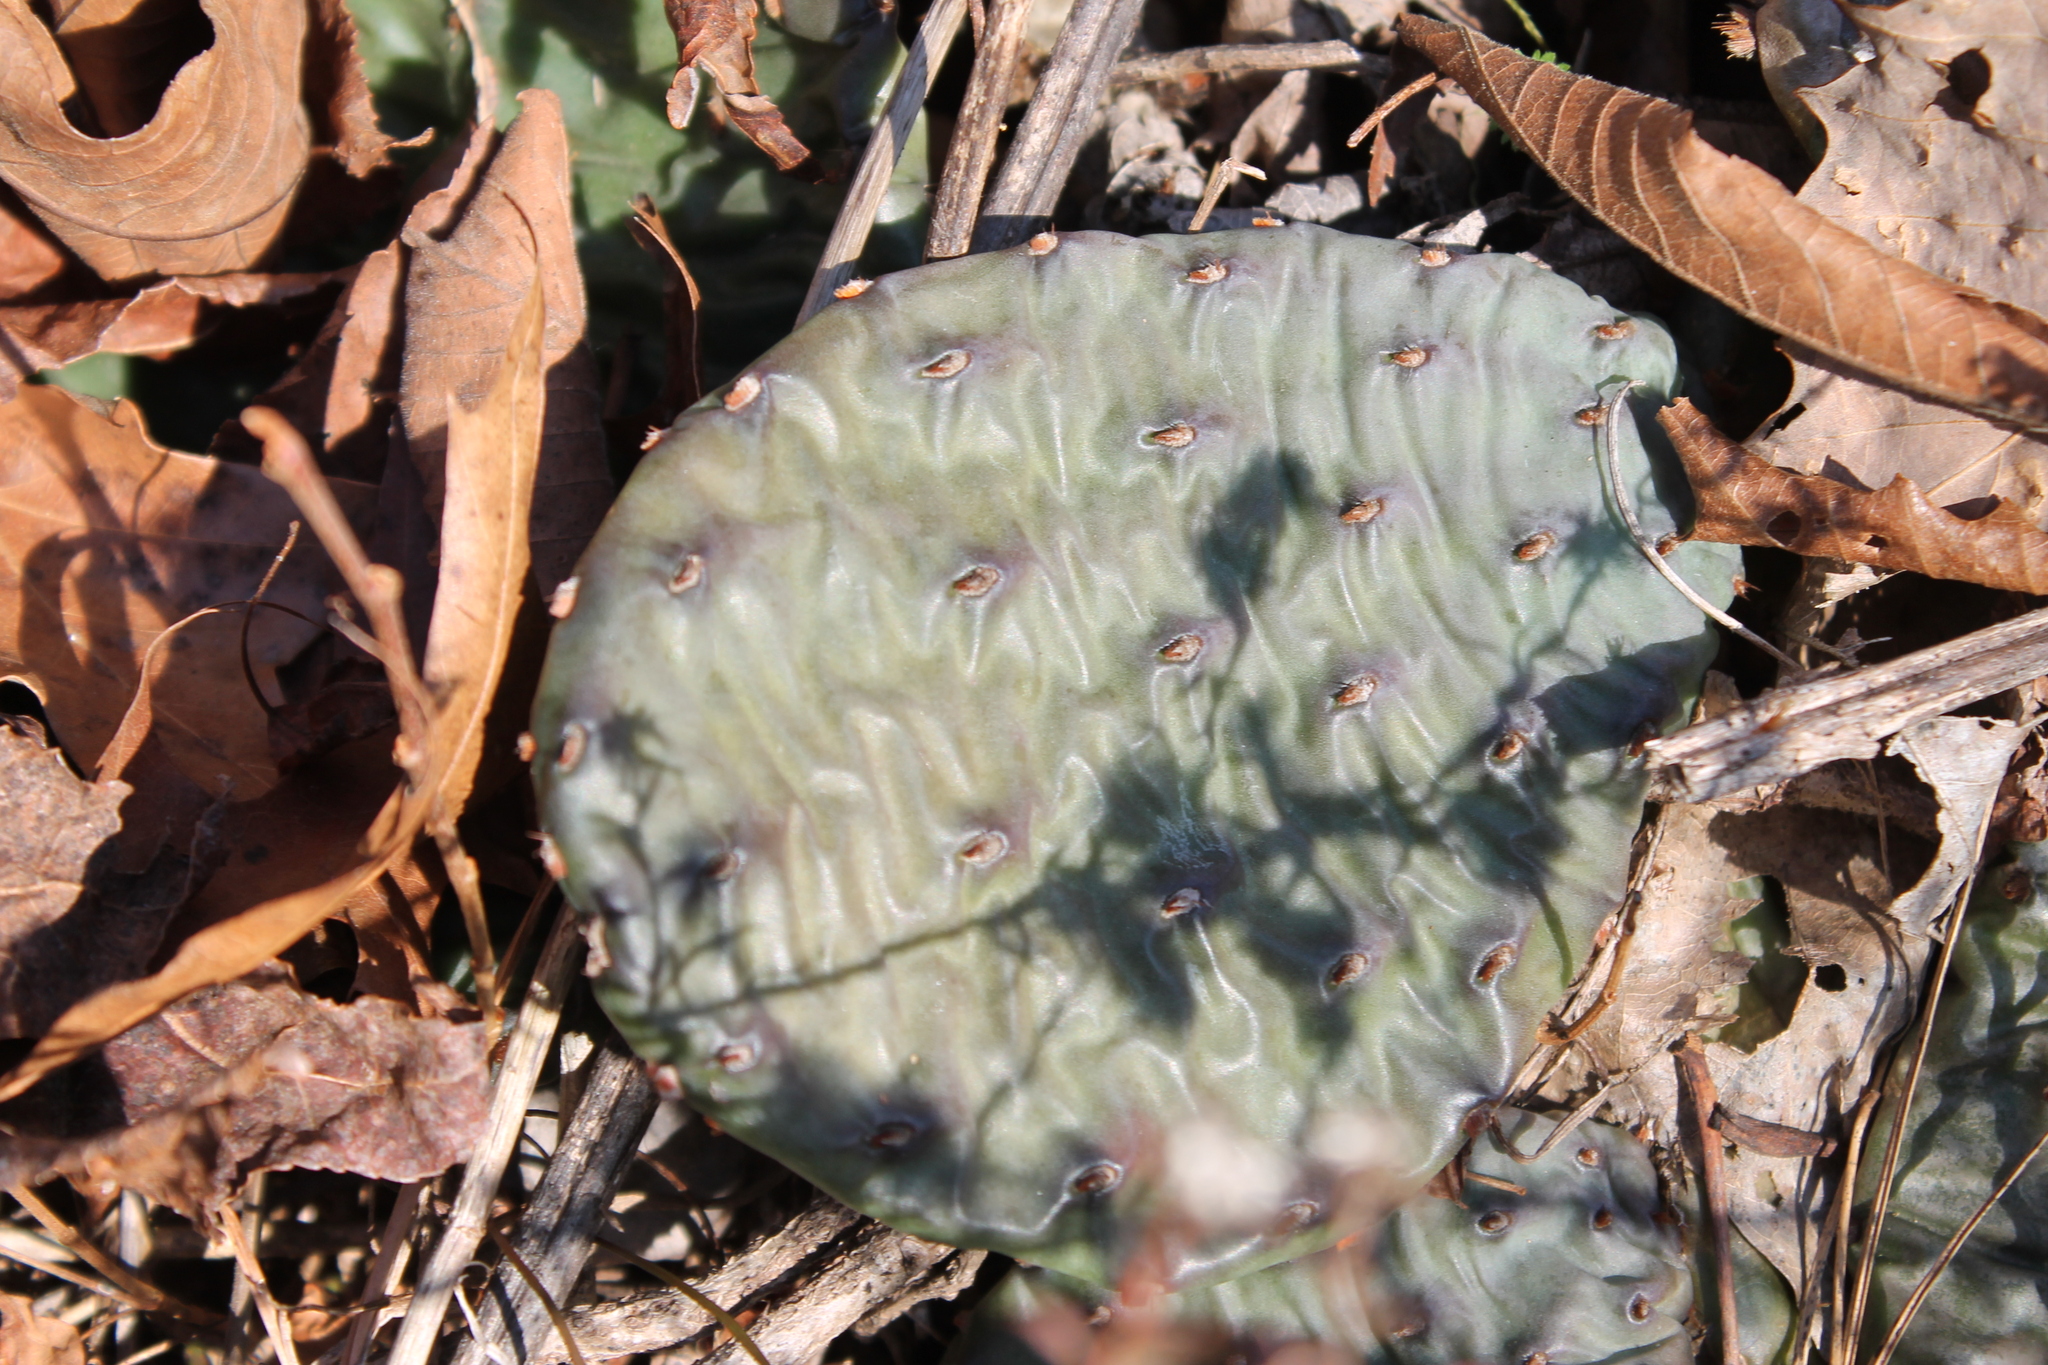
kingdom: Plantae
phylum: Tracheophyta
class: Magnoliopsida
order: Caryophyllales
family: Cactaceae
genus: Opuntia
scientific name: Opuntia humifusa
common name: Eastern prickly-pear
